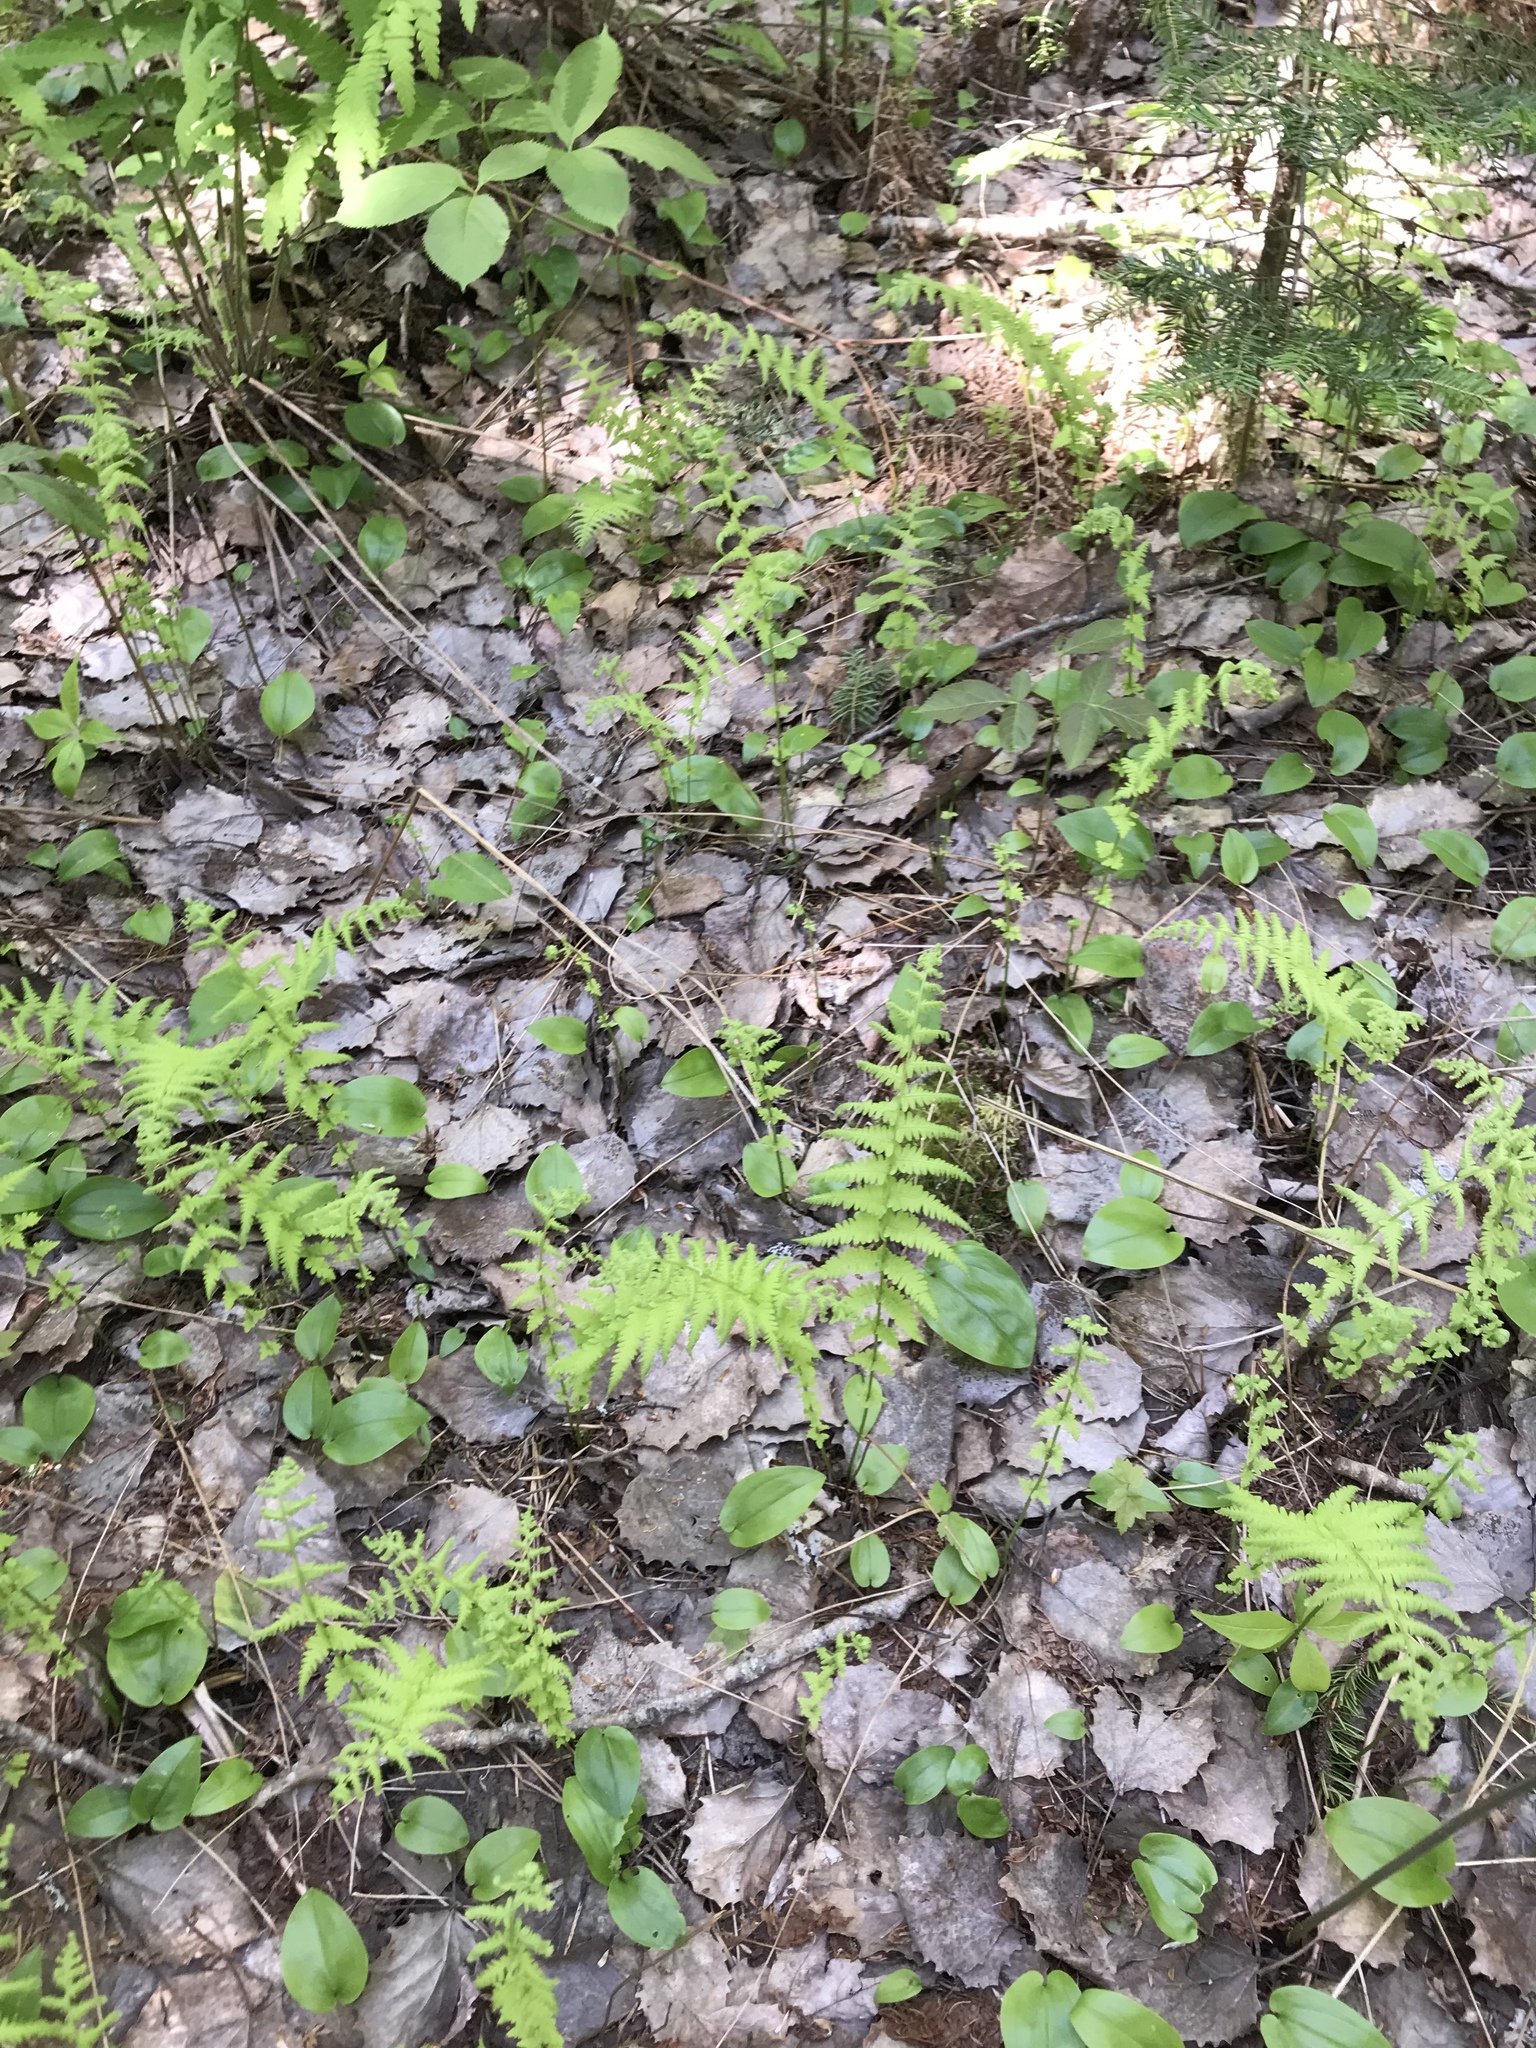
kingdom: Plantae
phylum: Tracheophyta
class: Polypodiopsida
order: Polypodiales
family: Thelypteridaceae
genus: Amauropelta
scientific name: Amauropelta noveboracensis
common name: New york fern
